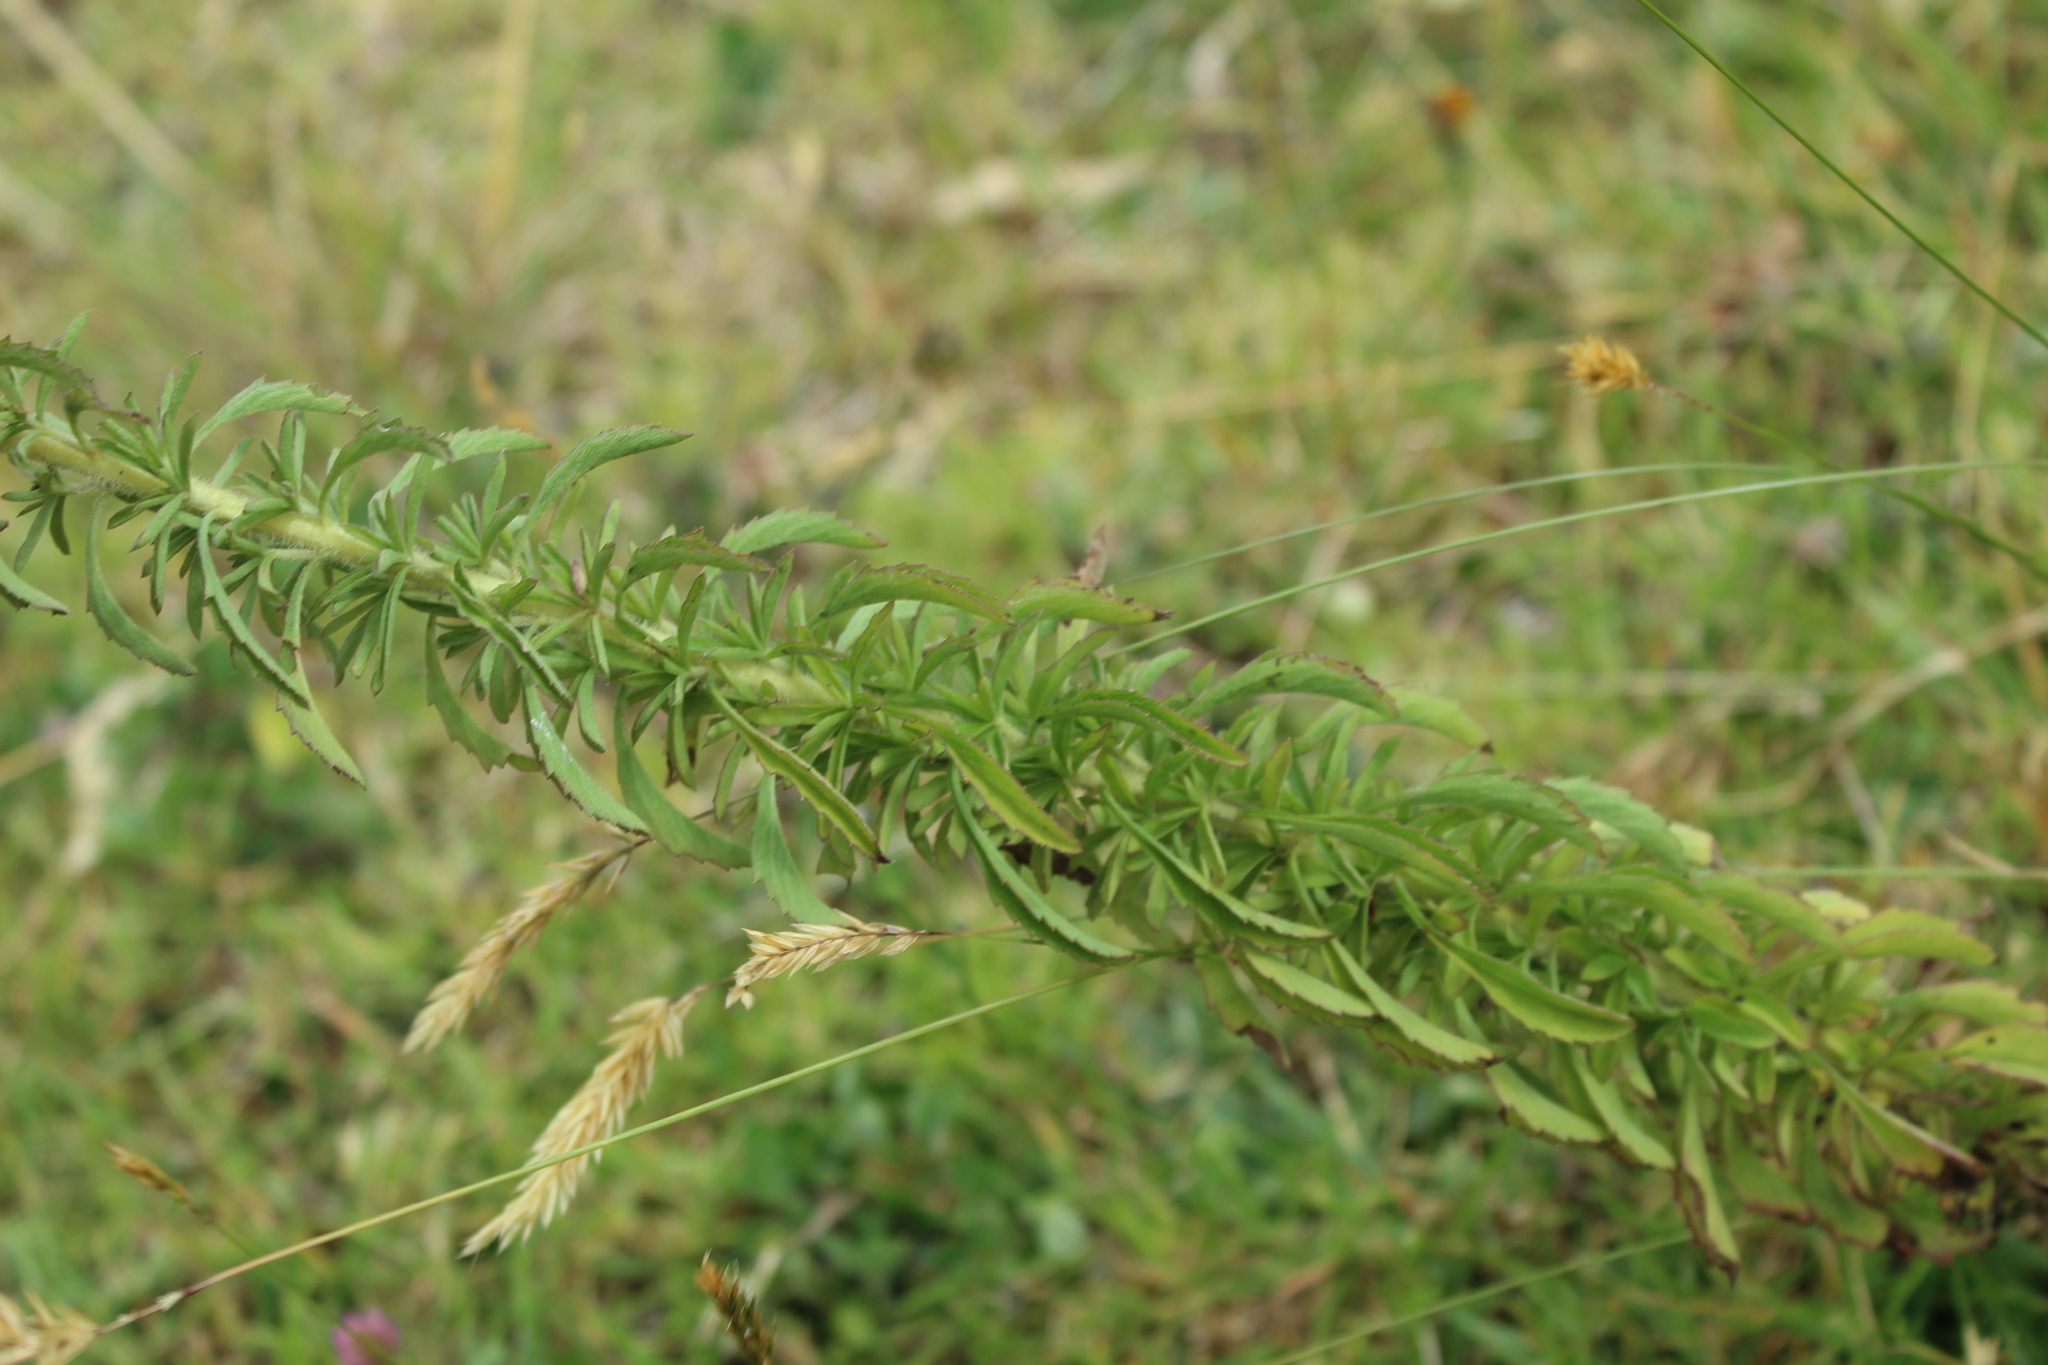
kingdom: Plantae
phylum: Tracheophyta
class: Magnoliopsida
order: Asterales
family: Asteraceae
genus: Stevia
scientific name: Stevia serrata
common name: Sawtooth candyleaf
